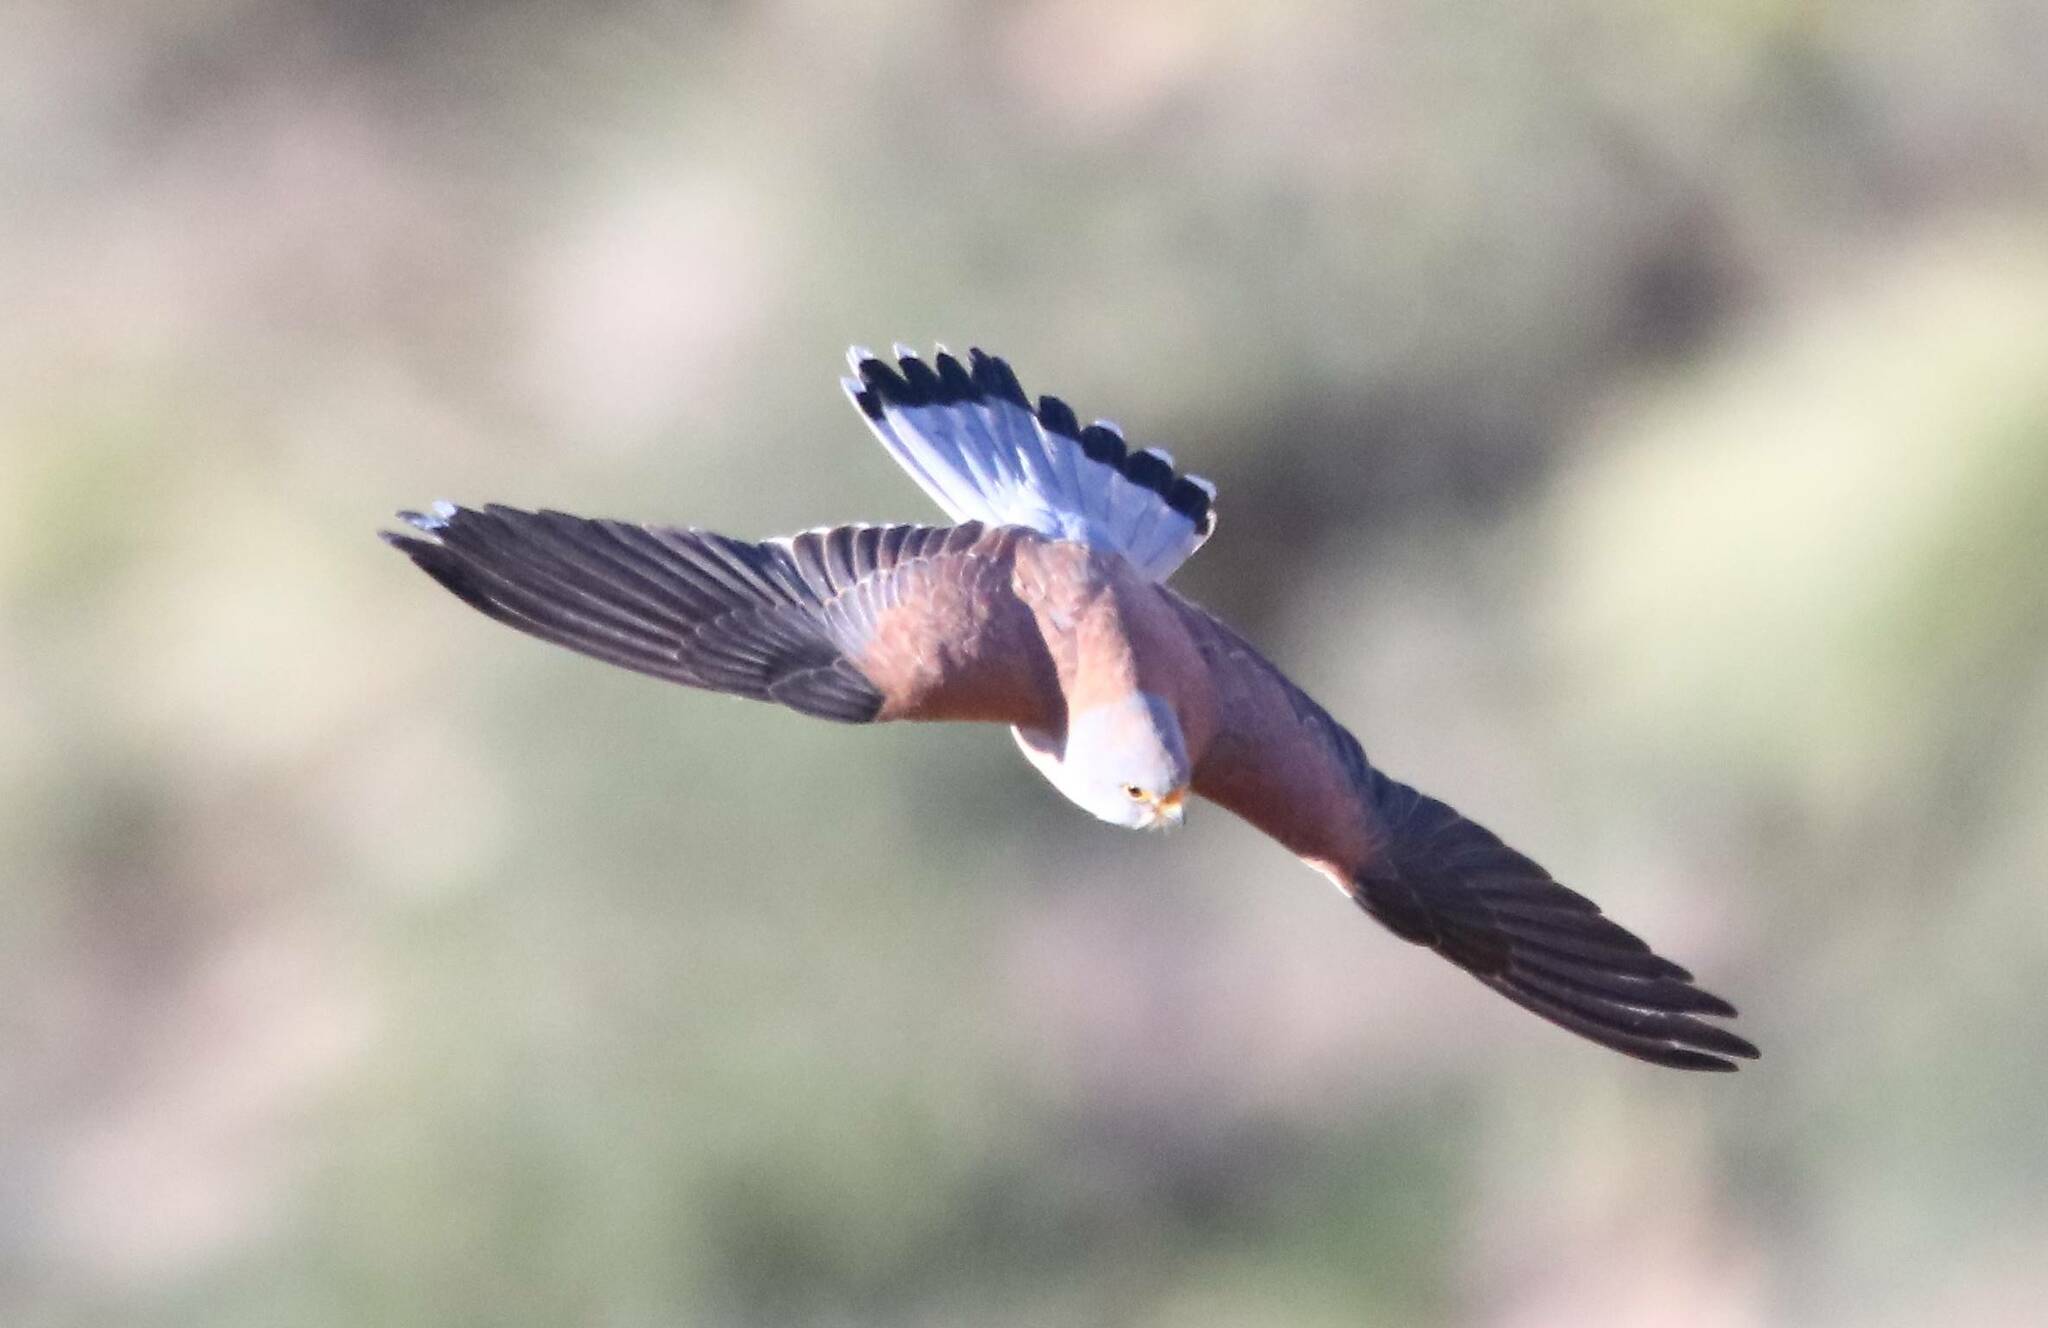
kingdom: Animalia
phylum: Chordata
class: Aves
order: Falconiformes
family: Falconidae
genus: Falco
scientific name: Falco naumanni
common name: Lesser kestrel
